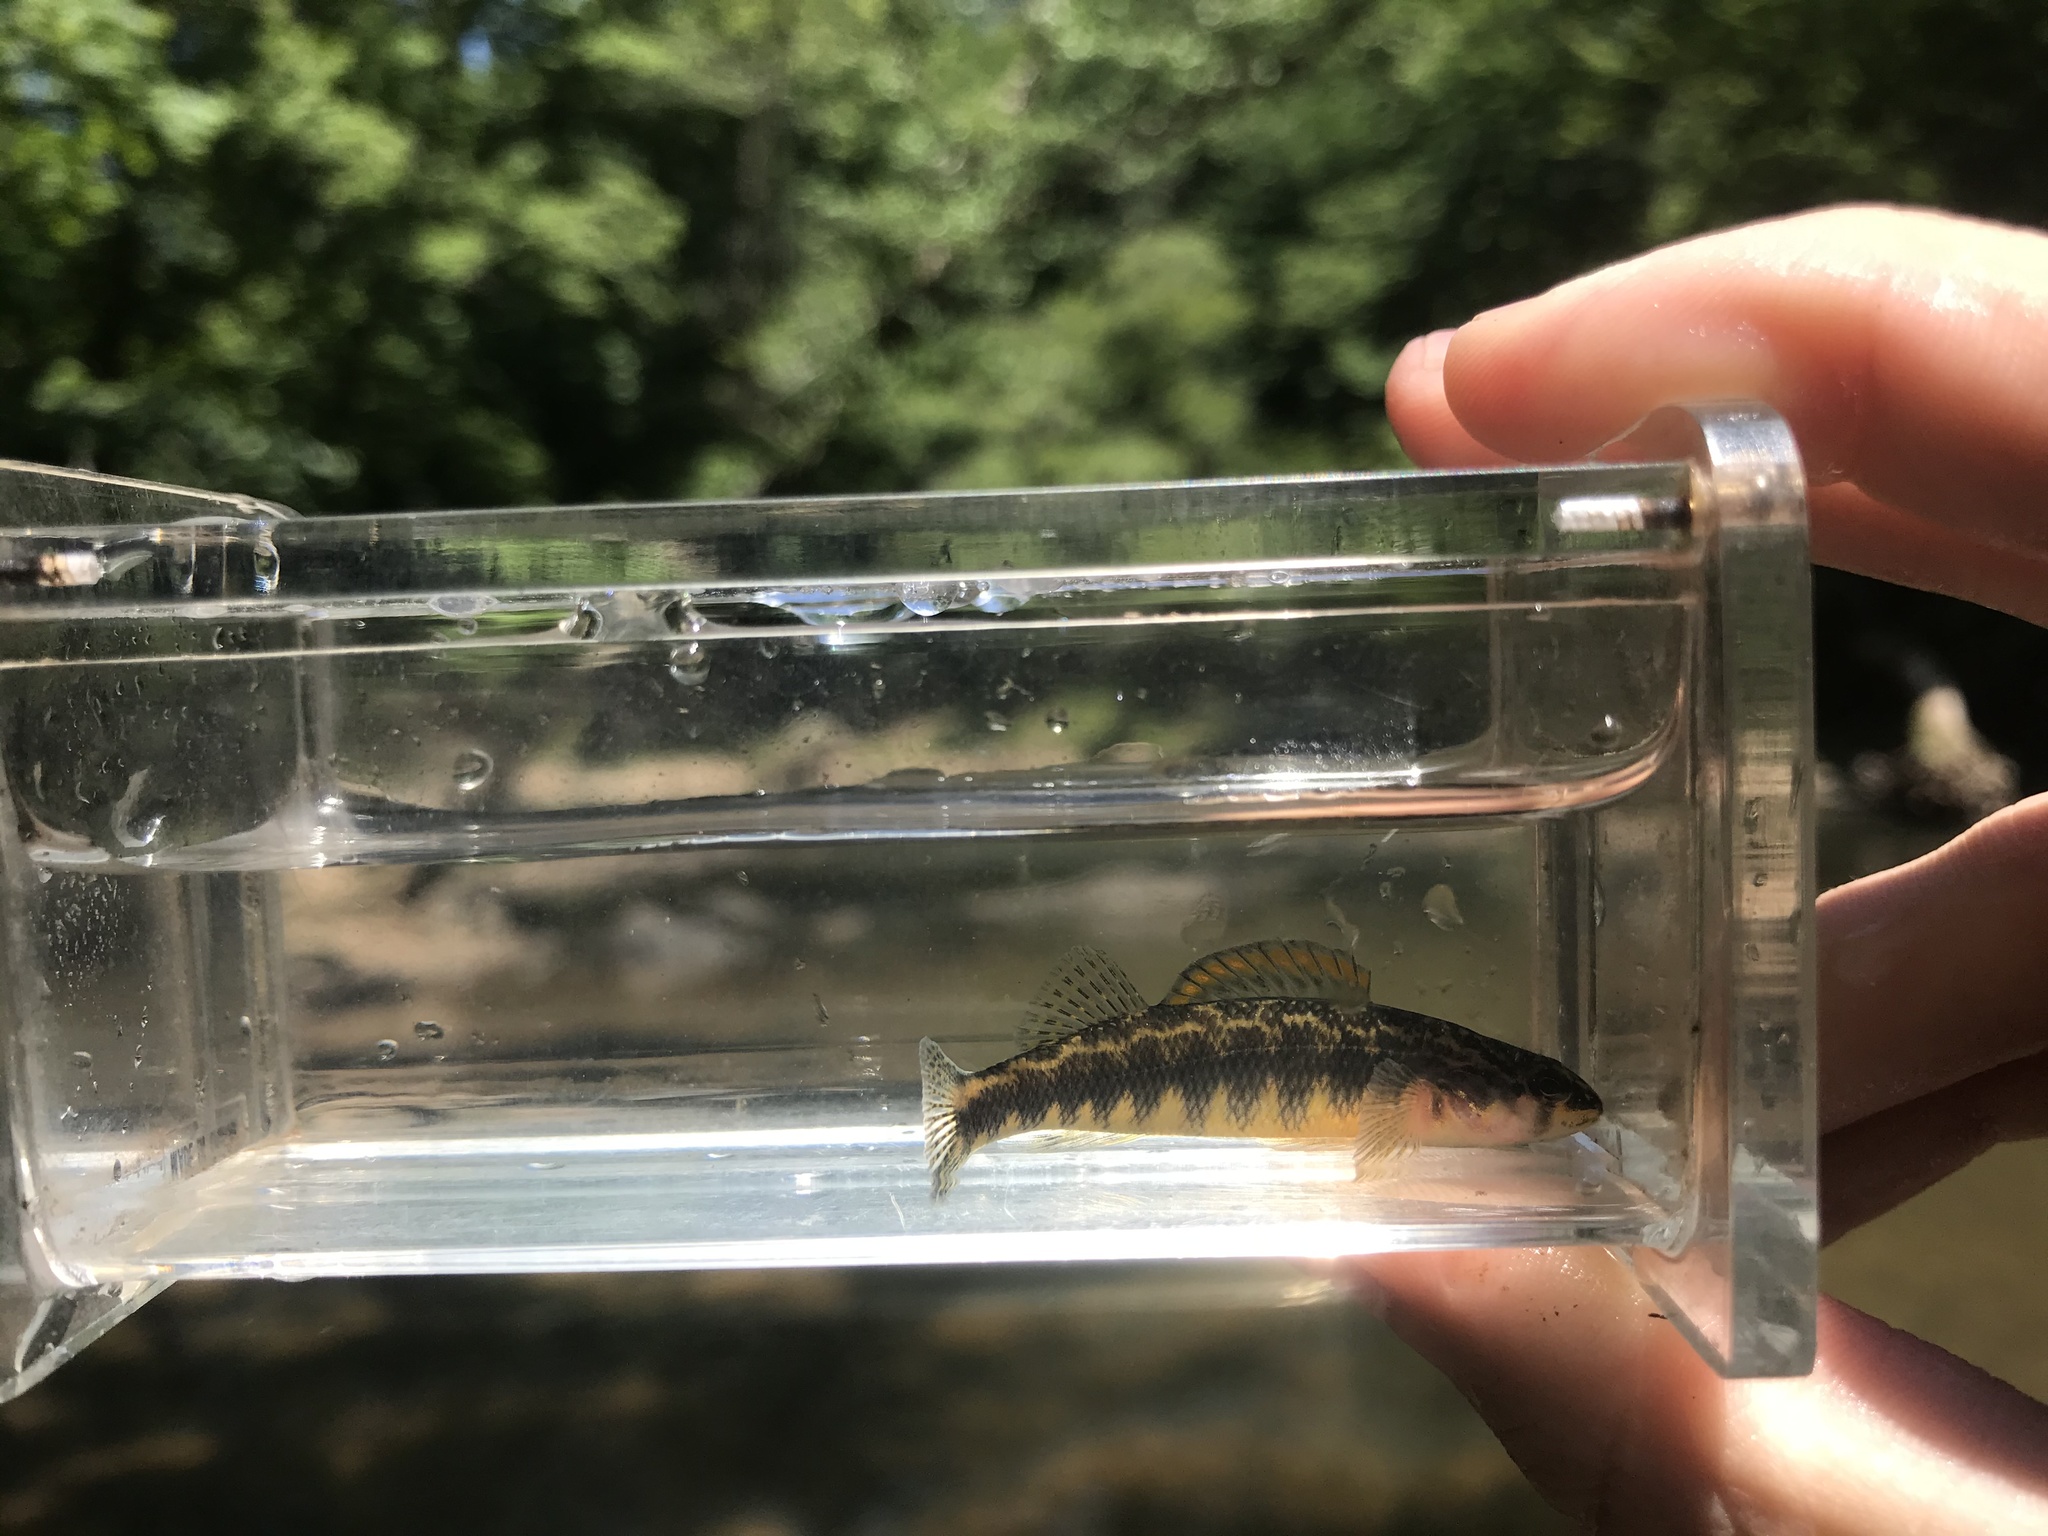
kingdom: Animalia
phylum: Chordata
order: Perciformes
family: Percidae
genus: Percina
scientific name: Percina roanoka
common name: Roanoke darter
